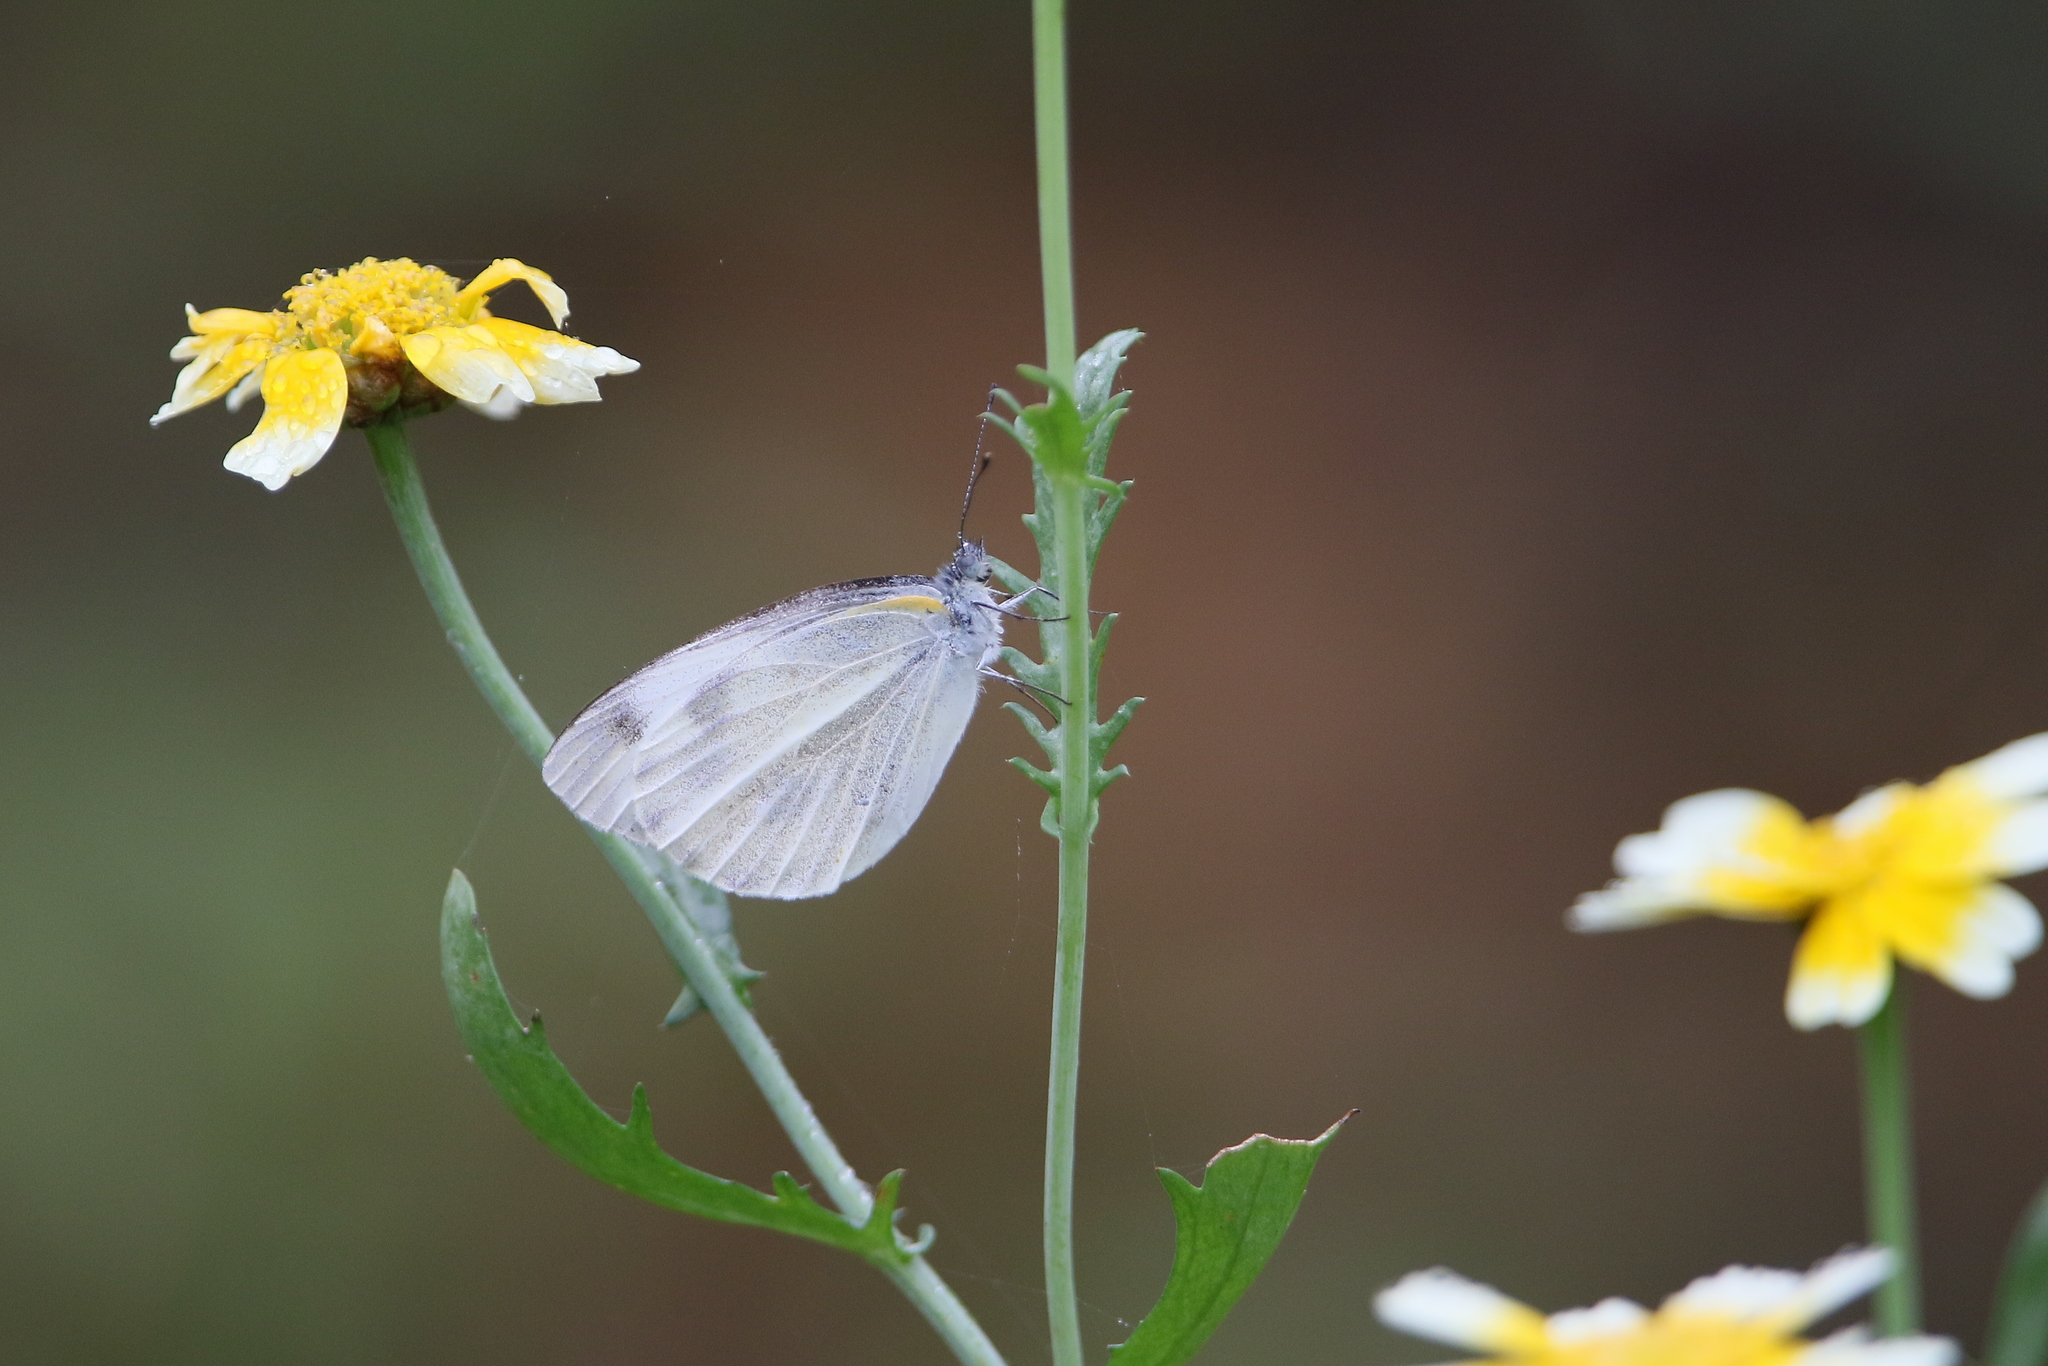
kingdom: Animalia
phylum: Arthropoda
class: Insecta
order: Lepidoptera
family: Pieridae
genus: Pieris
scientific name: Pieris canidia
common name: Indian cabbage white
